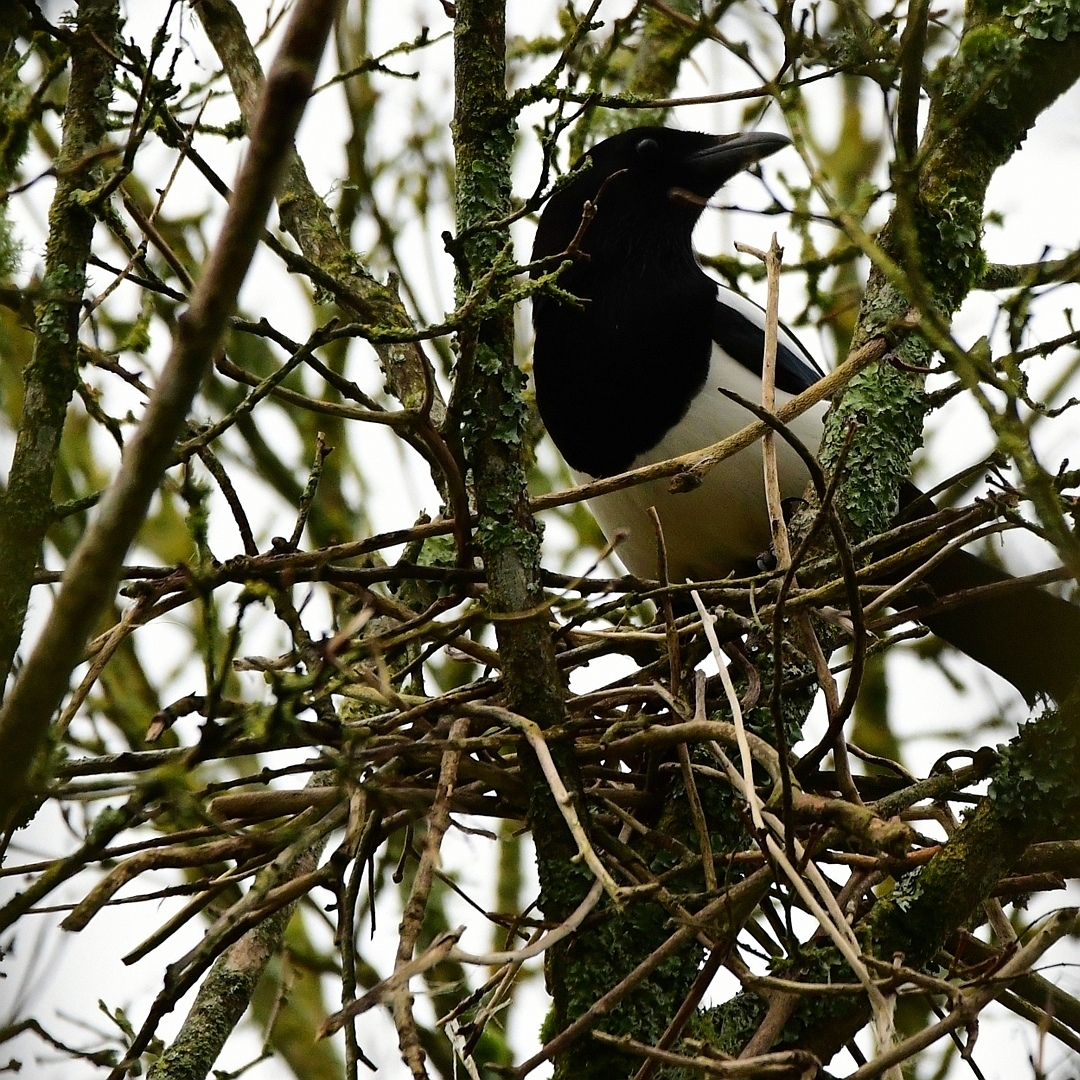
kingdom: Animalia
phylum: Chordata
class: Aves
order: Passeriformes
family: Corvidae
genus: Pica
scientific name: Pica pica
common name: Eurasian magpie
